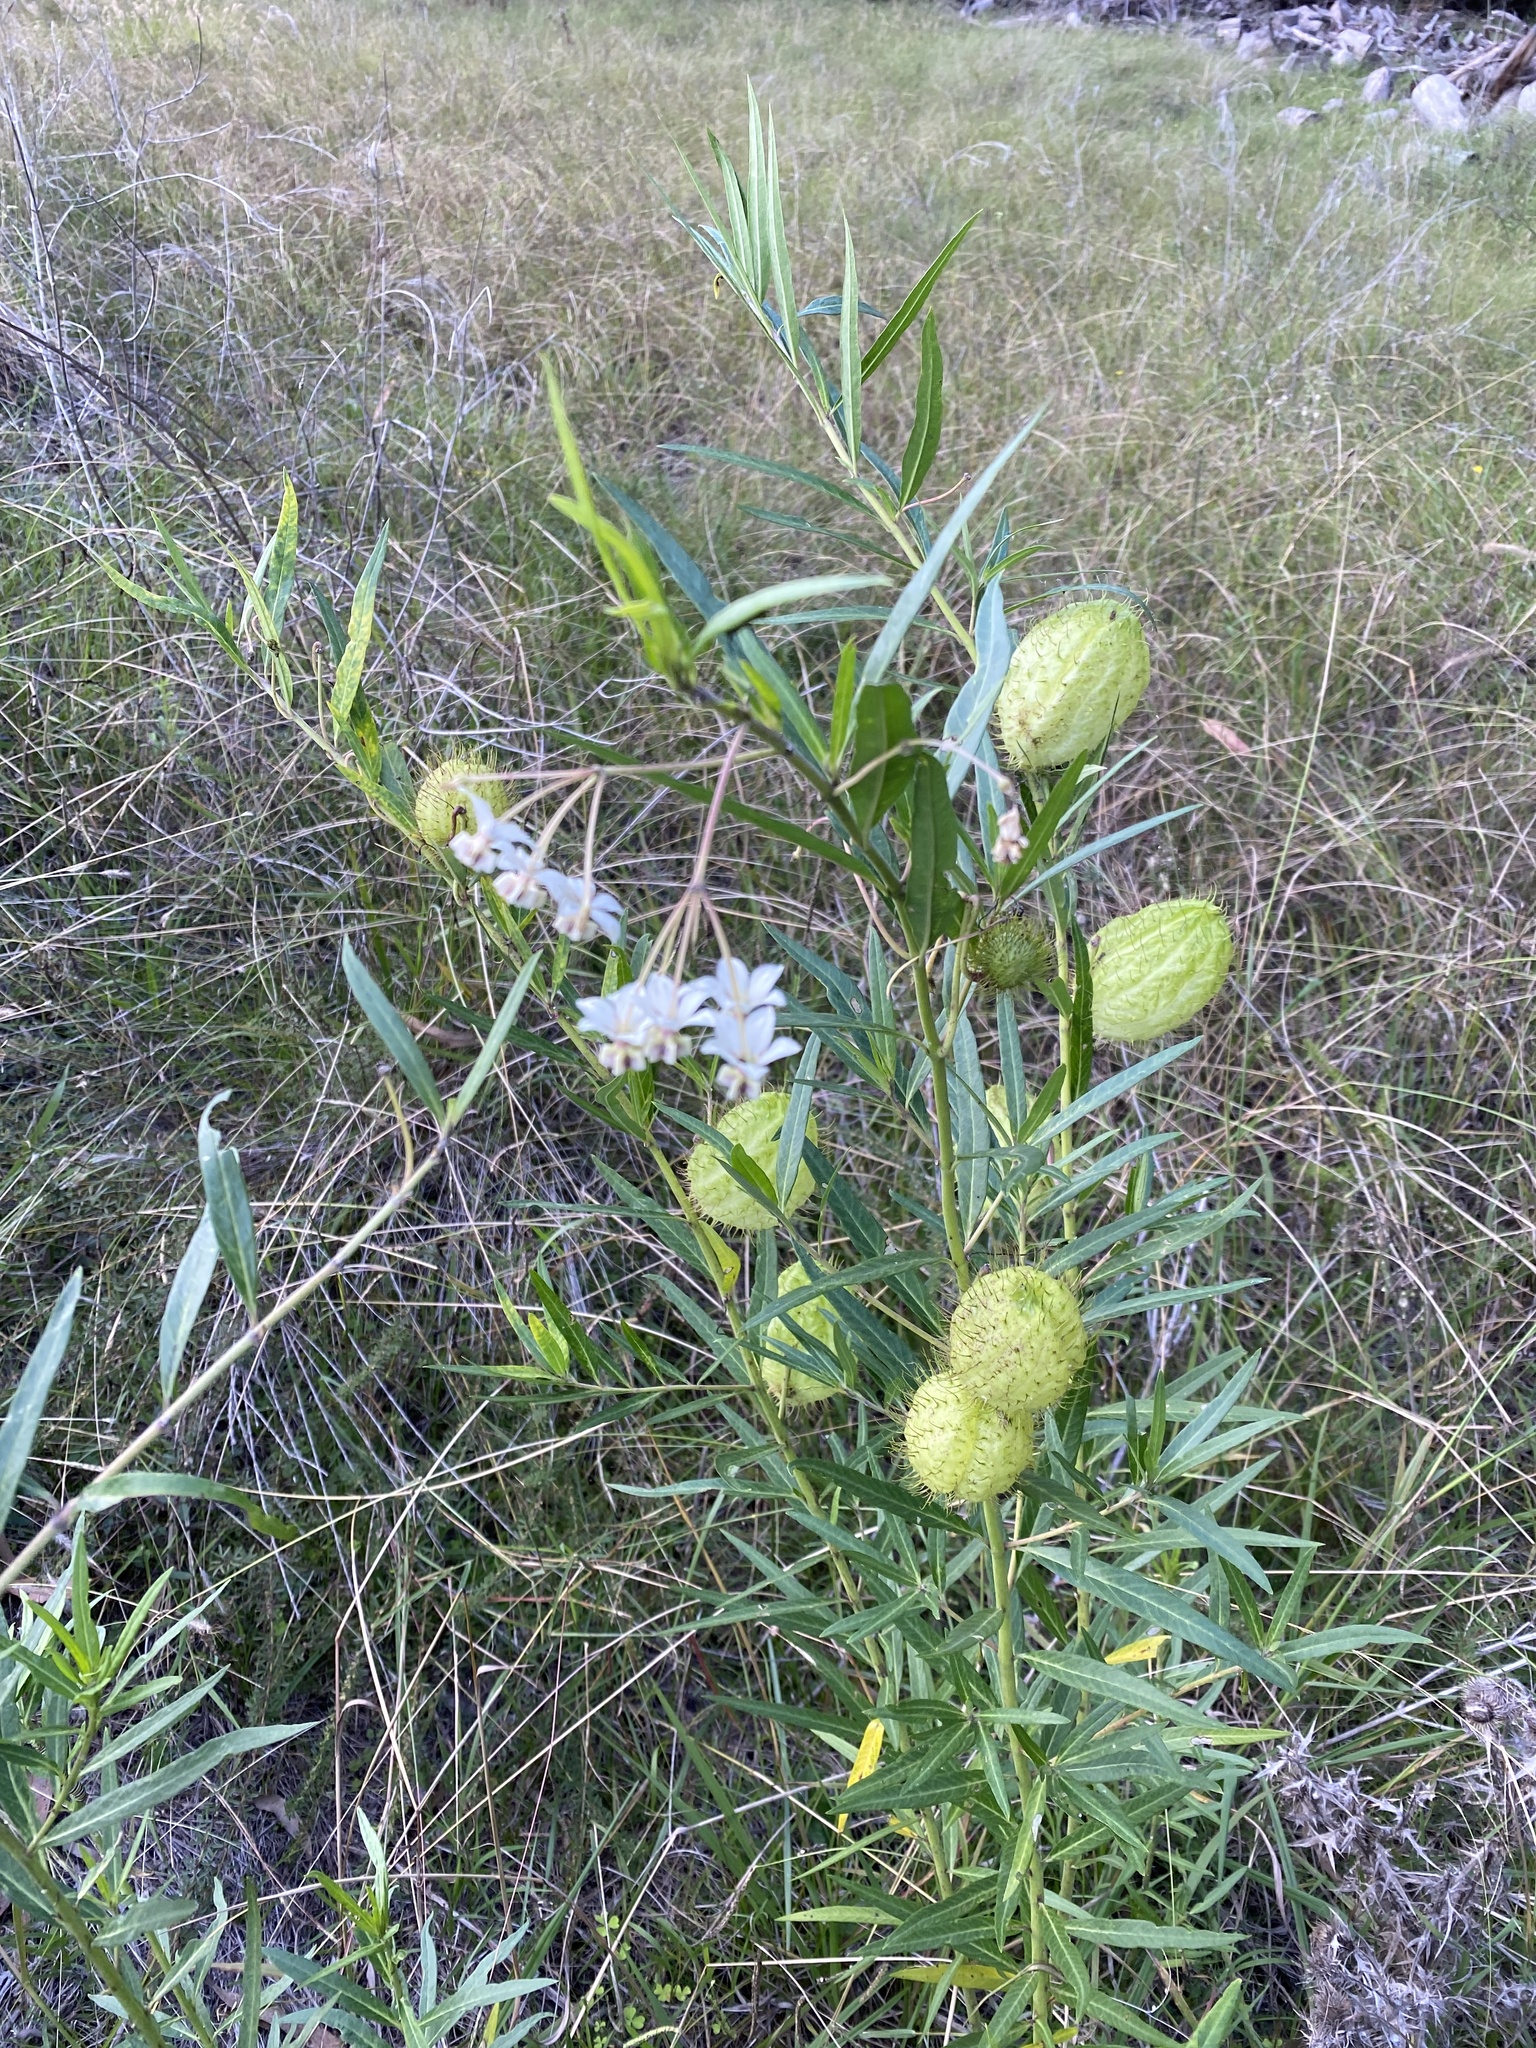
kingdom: Plantae
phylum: Tracheophyta
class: Magnoliopsida
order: Gentianales
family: Apocynaceae
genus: Gomphocarpus
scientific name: Gomphocarpus physocarpus
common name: Balloon cotton bush
